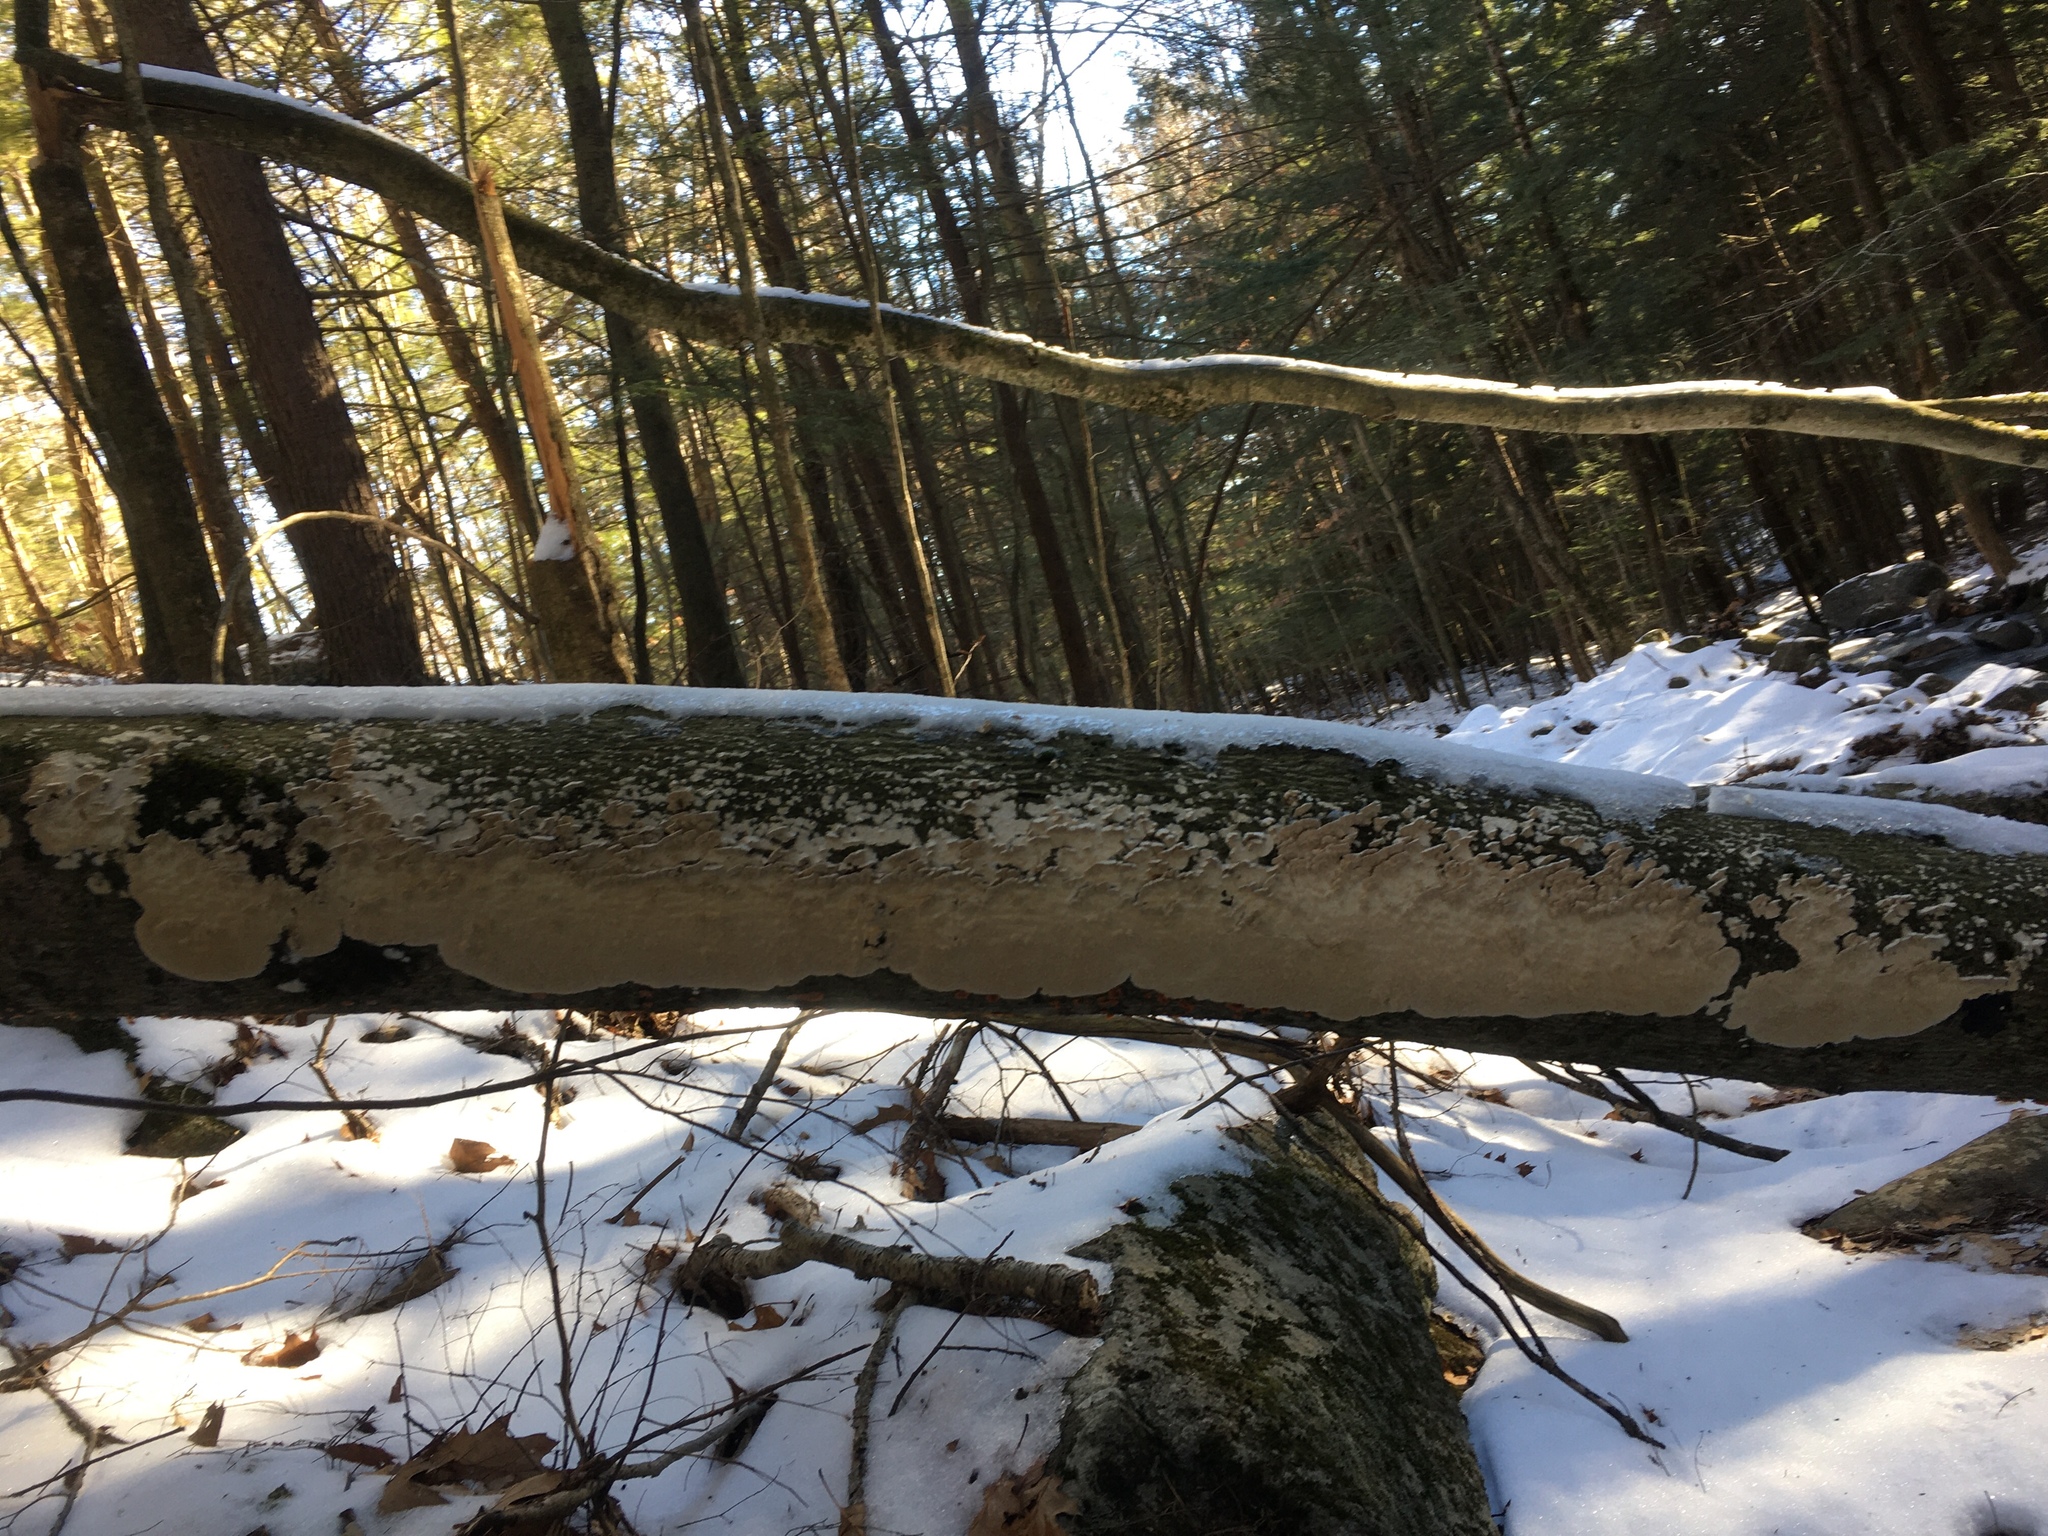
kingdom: Fungi
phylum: Basidiomycota
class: Agaricomycetes
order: Polyporales
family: Irpicaceae
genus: Irpex
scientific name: Irpex lacteus
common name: Milk-white toothed polypore
